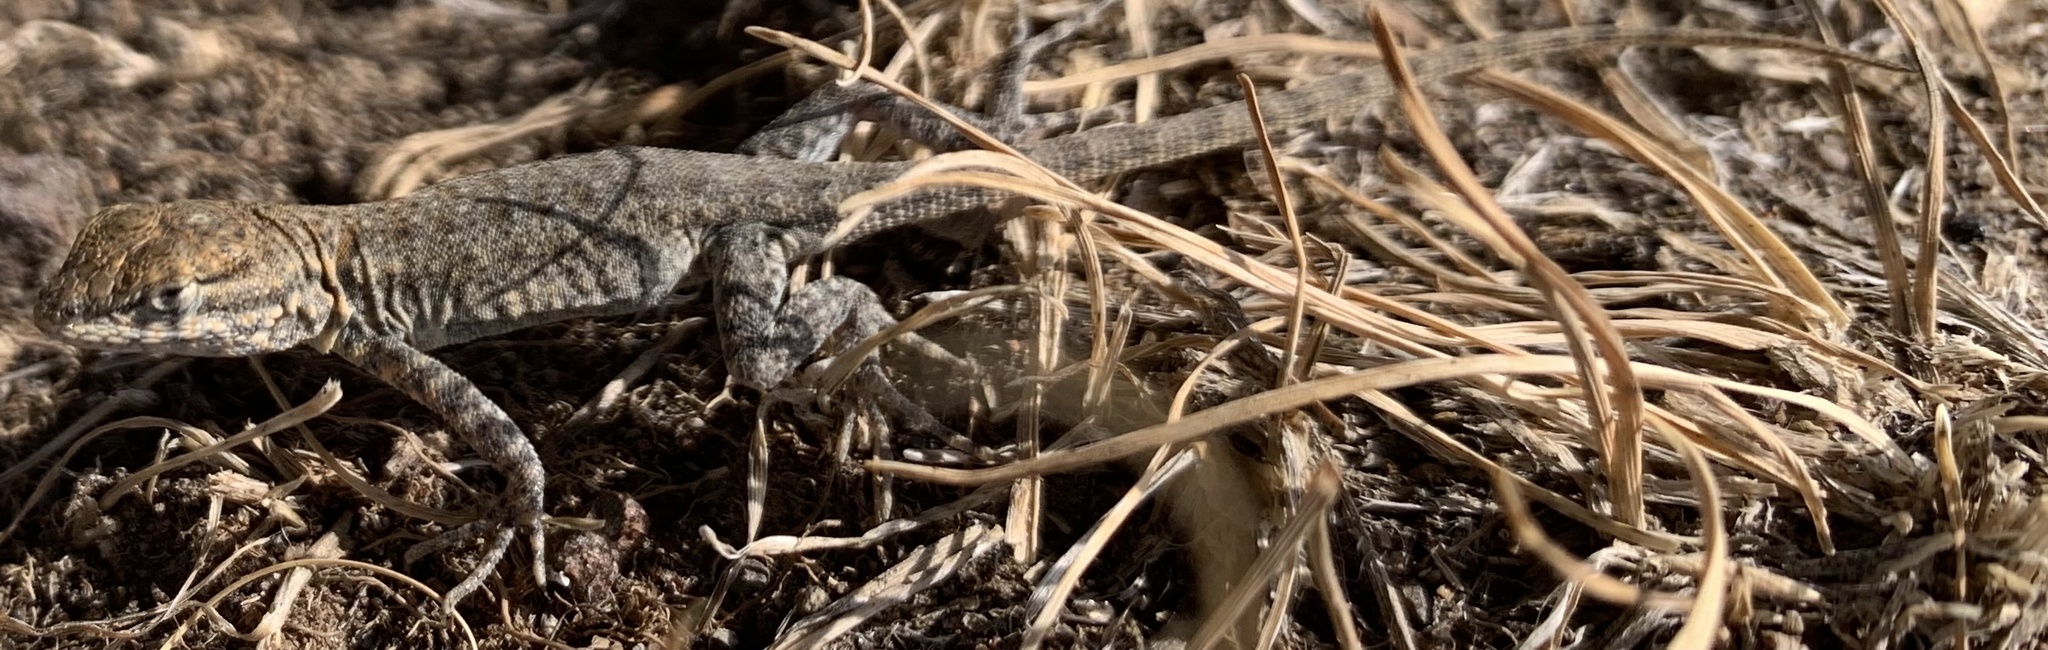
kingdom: Animalia
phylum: Chordata
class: Squamata
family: Phrynosomatidae
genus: Uta
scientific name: Uta stansburiana
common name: Side-blotched lizard
